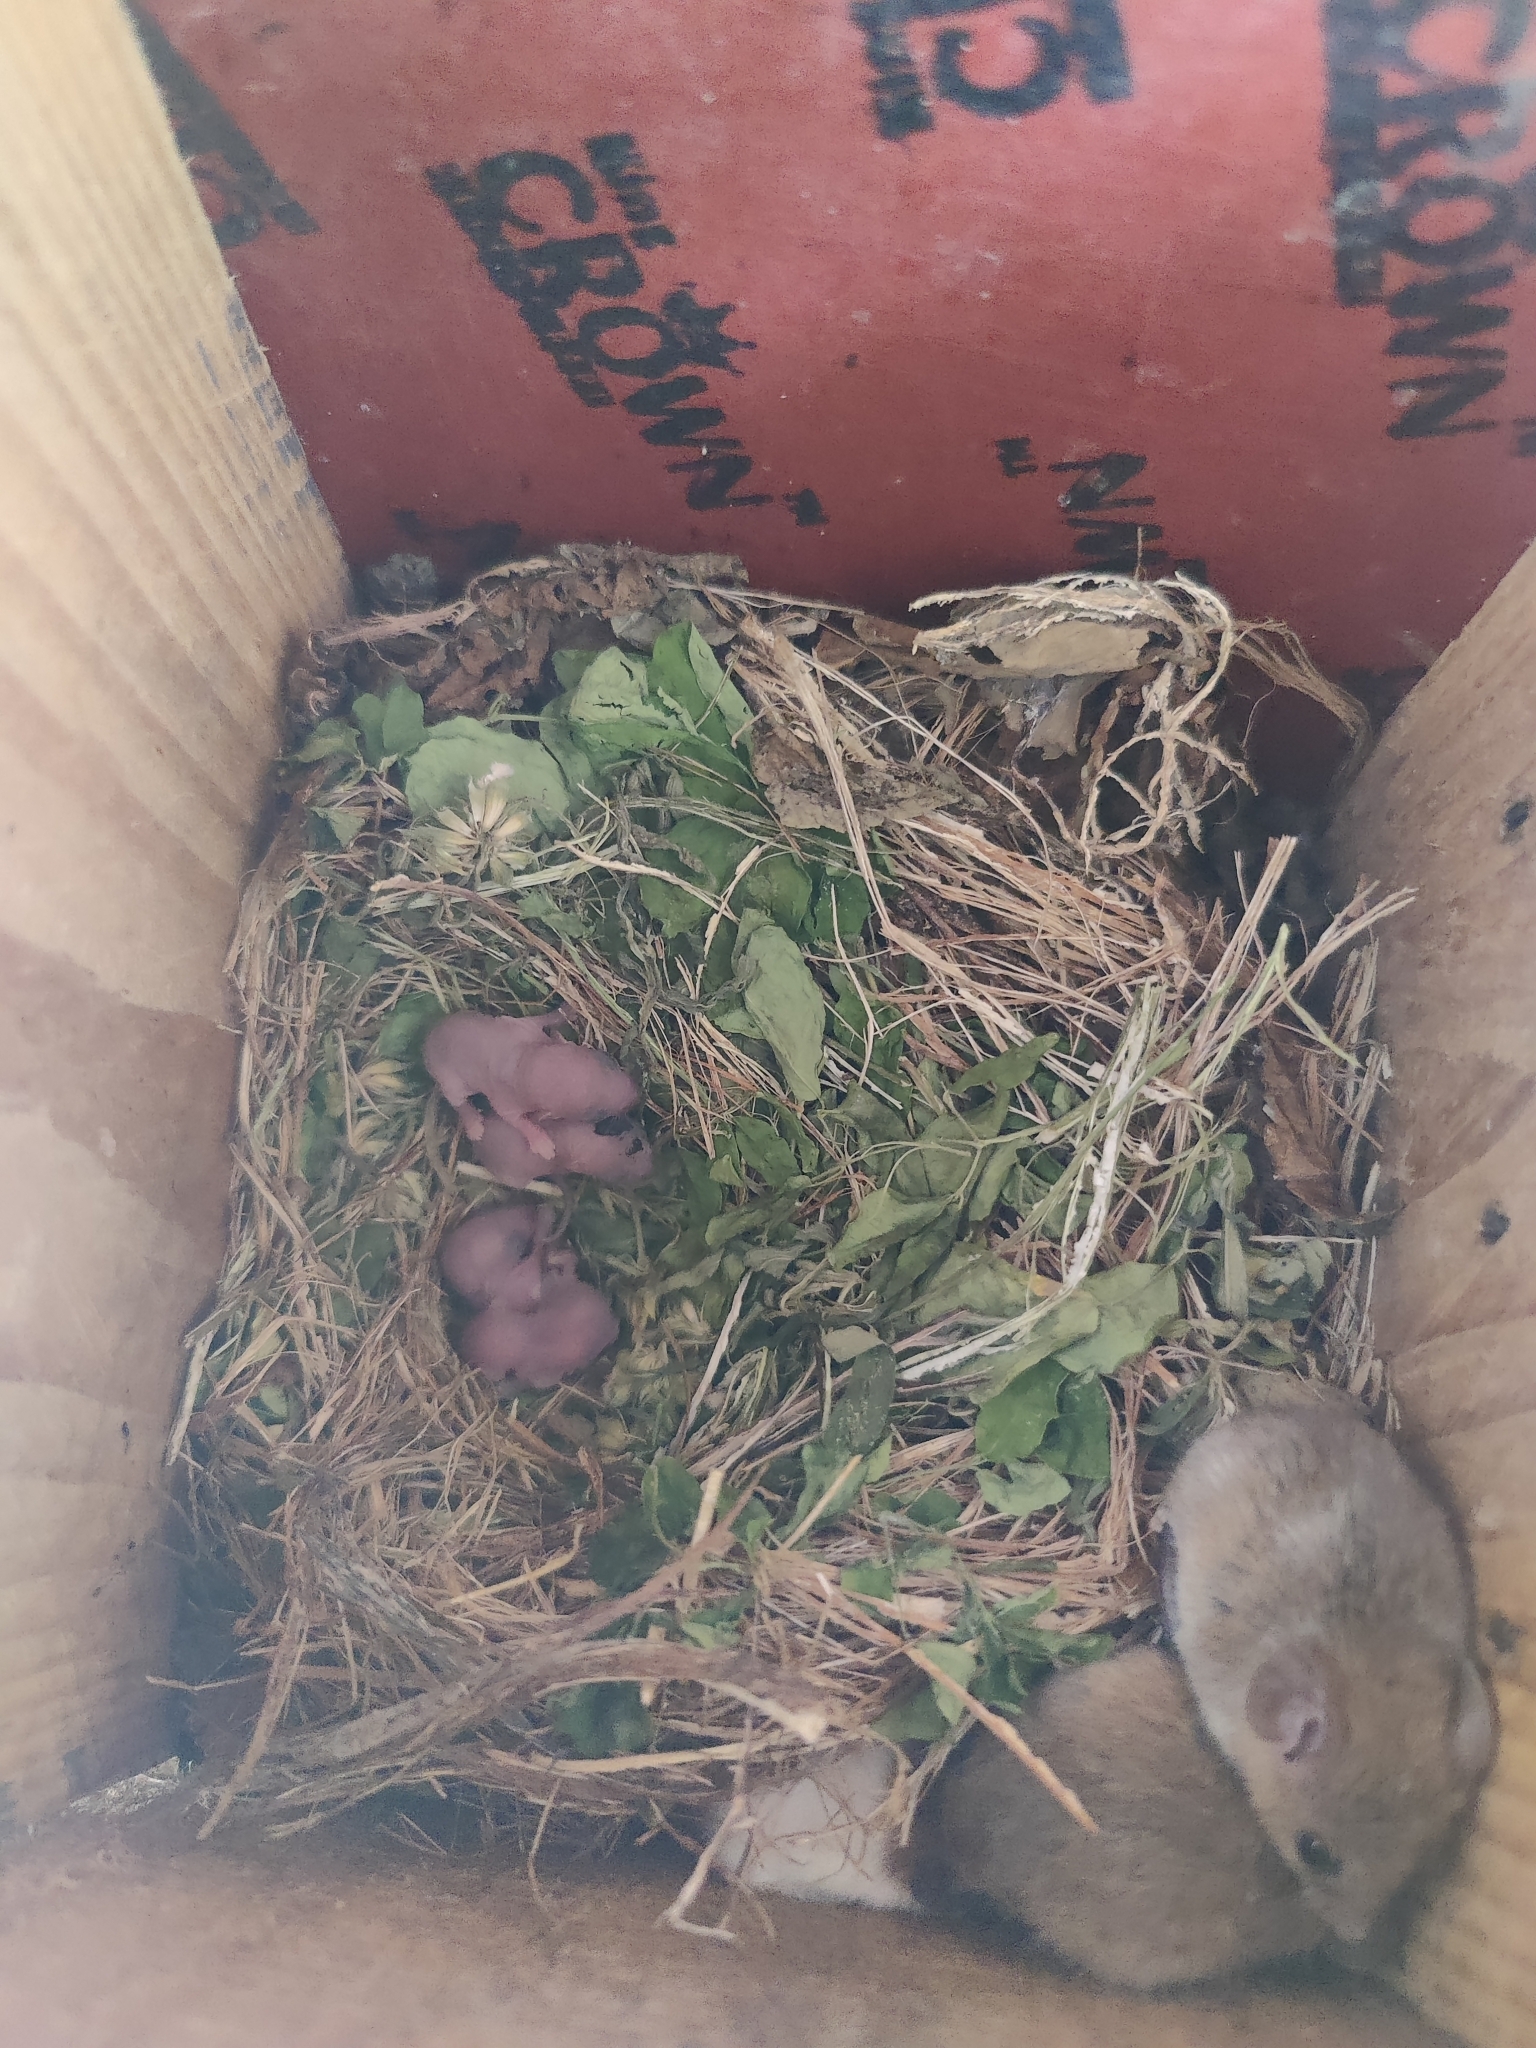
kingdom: Animalia
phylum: Chordata
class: Mammalia
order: Rodentia
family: Muridae
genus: Vandeleuria
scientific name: Vandeleuria oleracea
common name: Indomalayan vandeleuria
